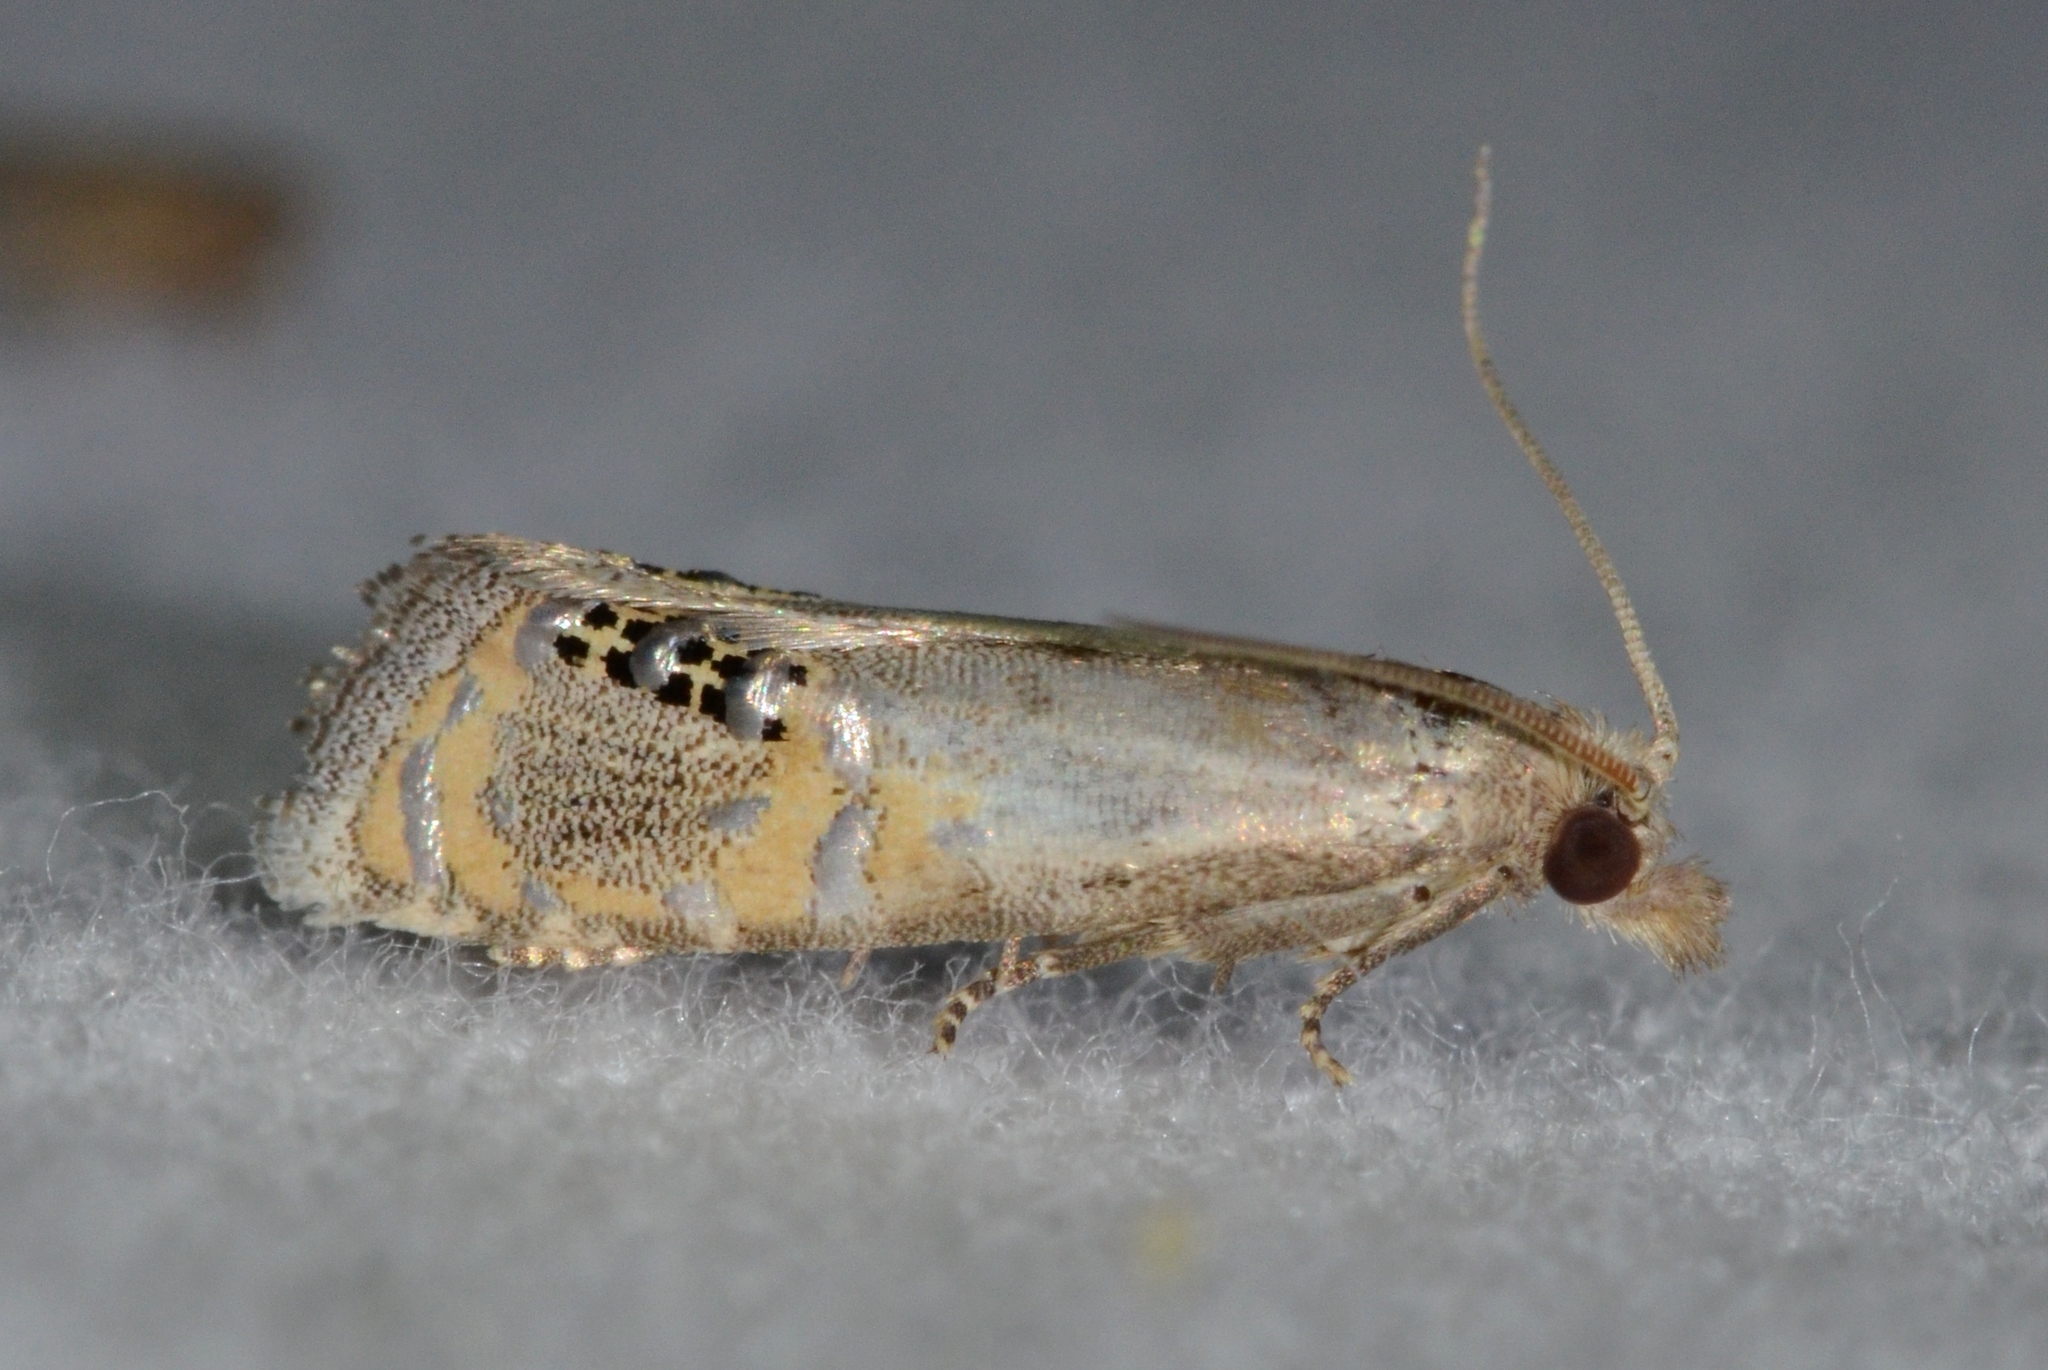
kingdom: Animalia
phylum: Arthropoda
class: Insecta
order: Lepidoptera
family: Tortricidae
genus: Pelochrista
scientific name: Pelochrista scintillana
